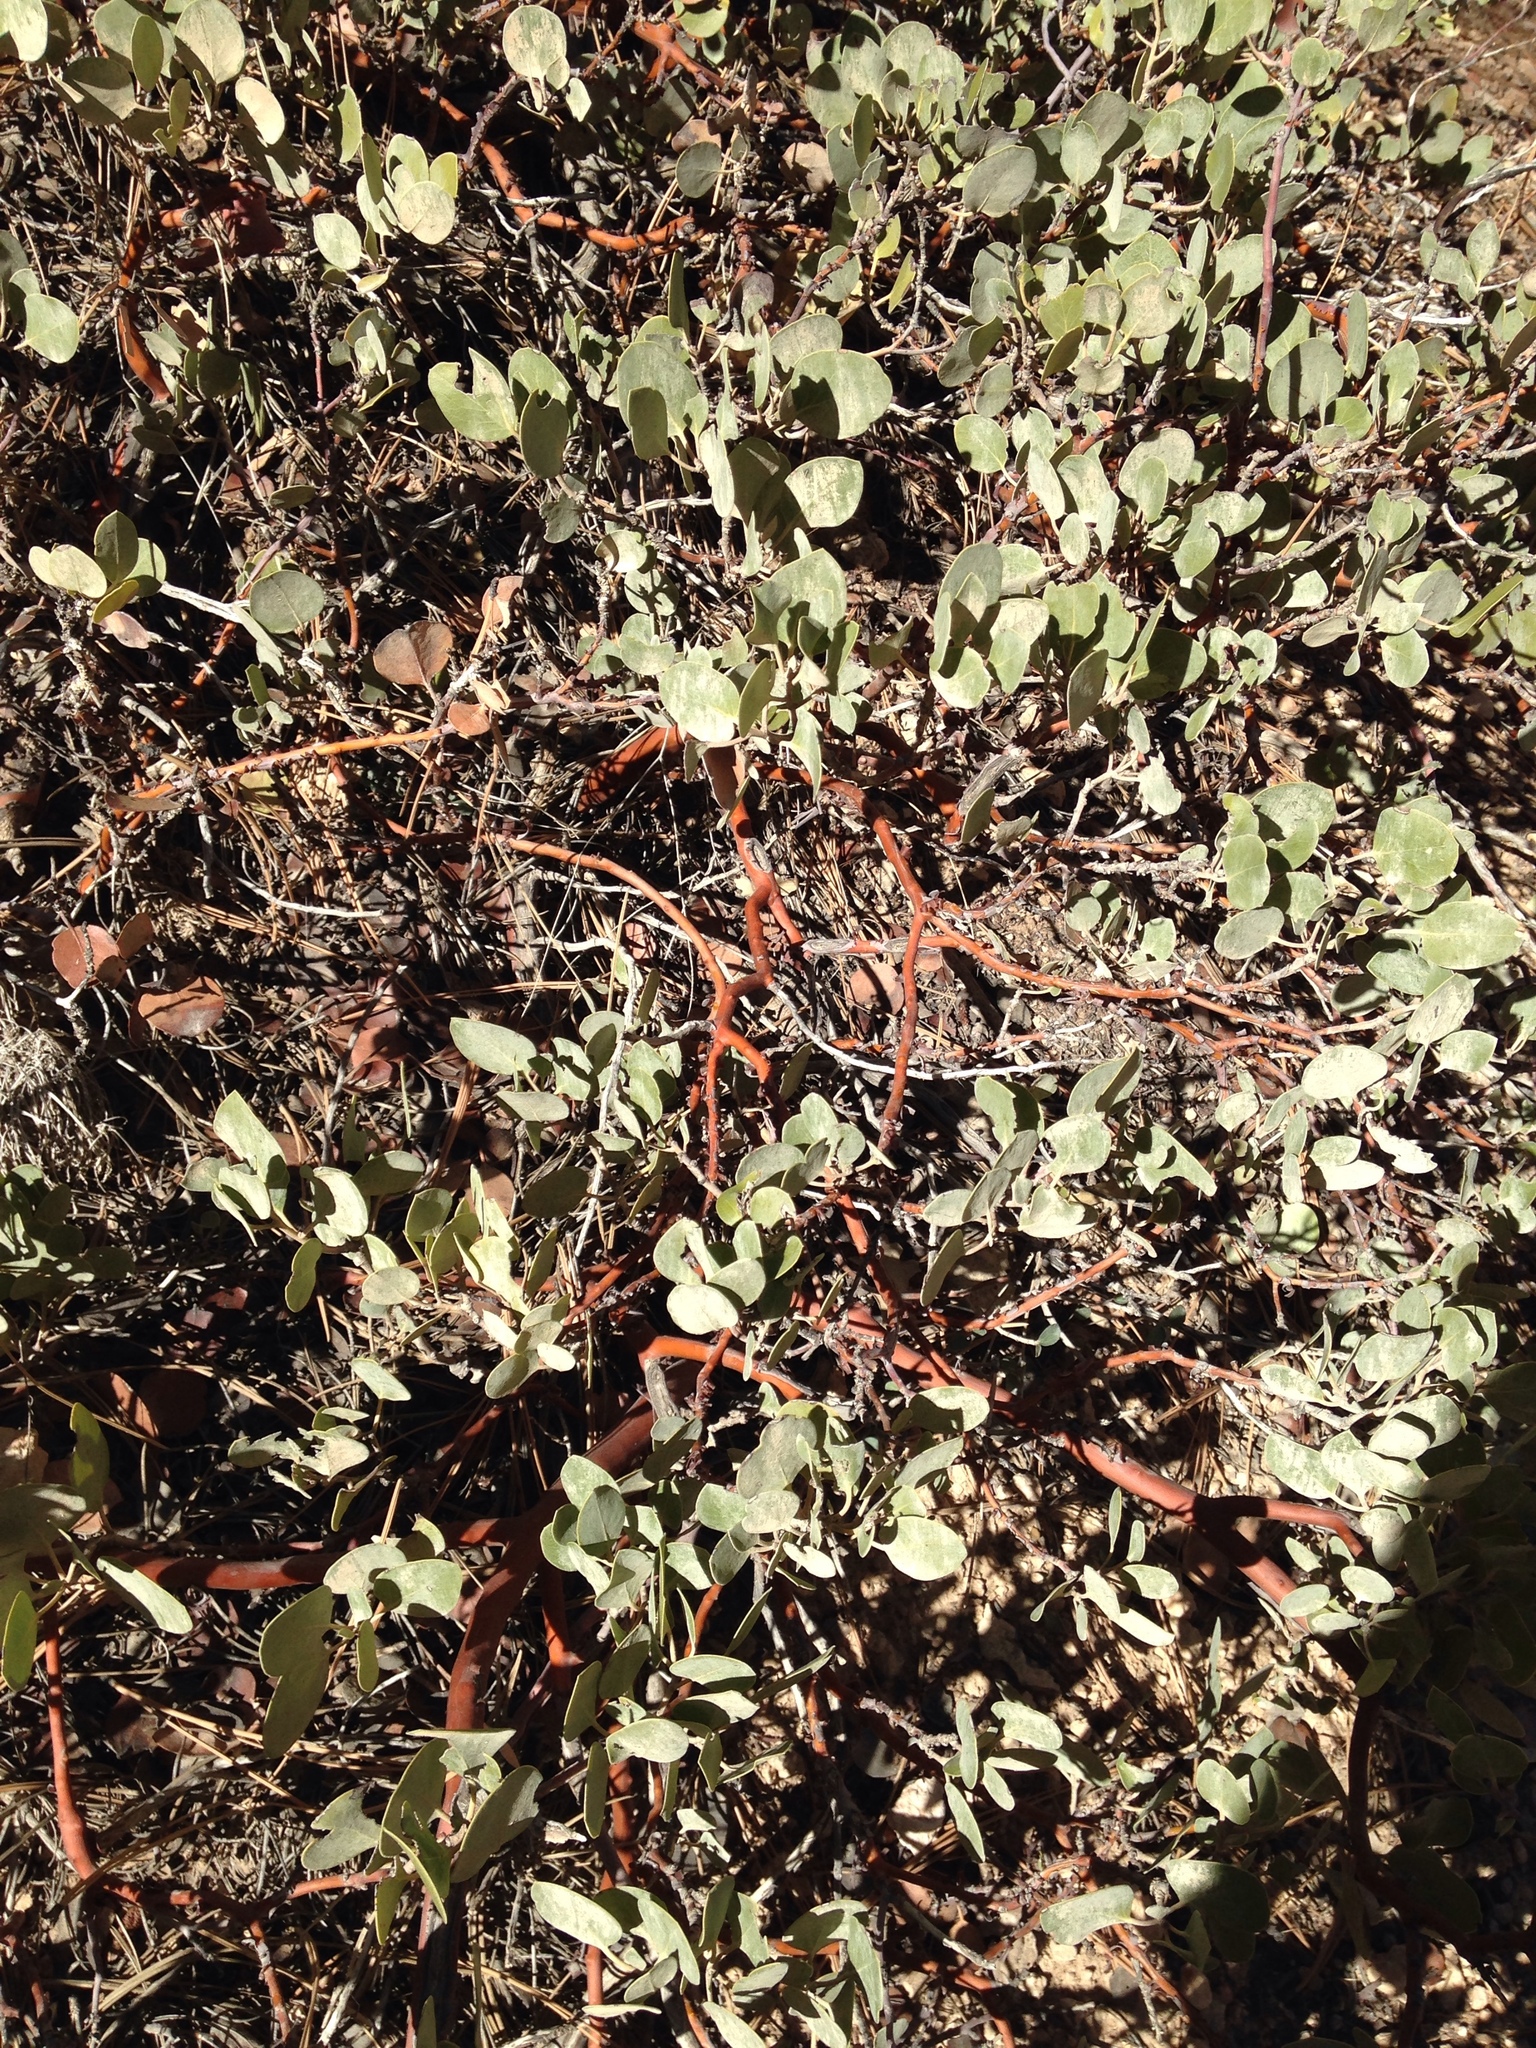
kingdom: Plantae
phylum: Tracheophyta
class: Magnoliopsida
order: Ericales
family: Ericaceae
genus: Arctostaphylos
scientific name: Arctostaphylos patula
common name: Green-leaf manzanita
